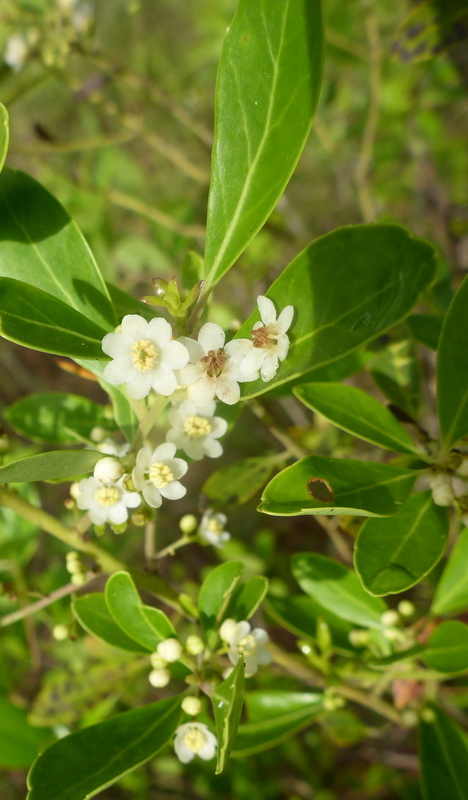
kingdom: Plantae
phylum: Tracheophyta
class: Magnoliopsida
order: Aquifoliales
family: Aquifoliaceae
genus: Ilex
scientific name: Ilex glabra
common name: Bitter gallberry
